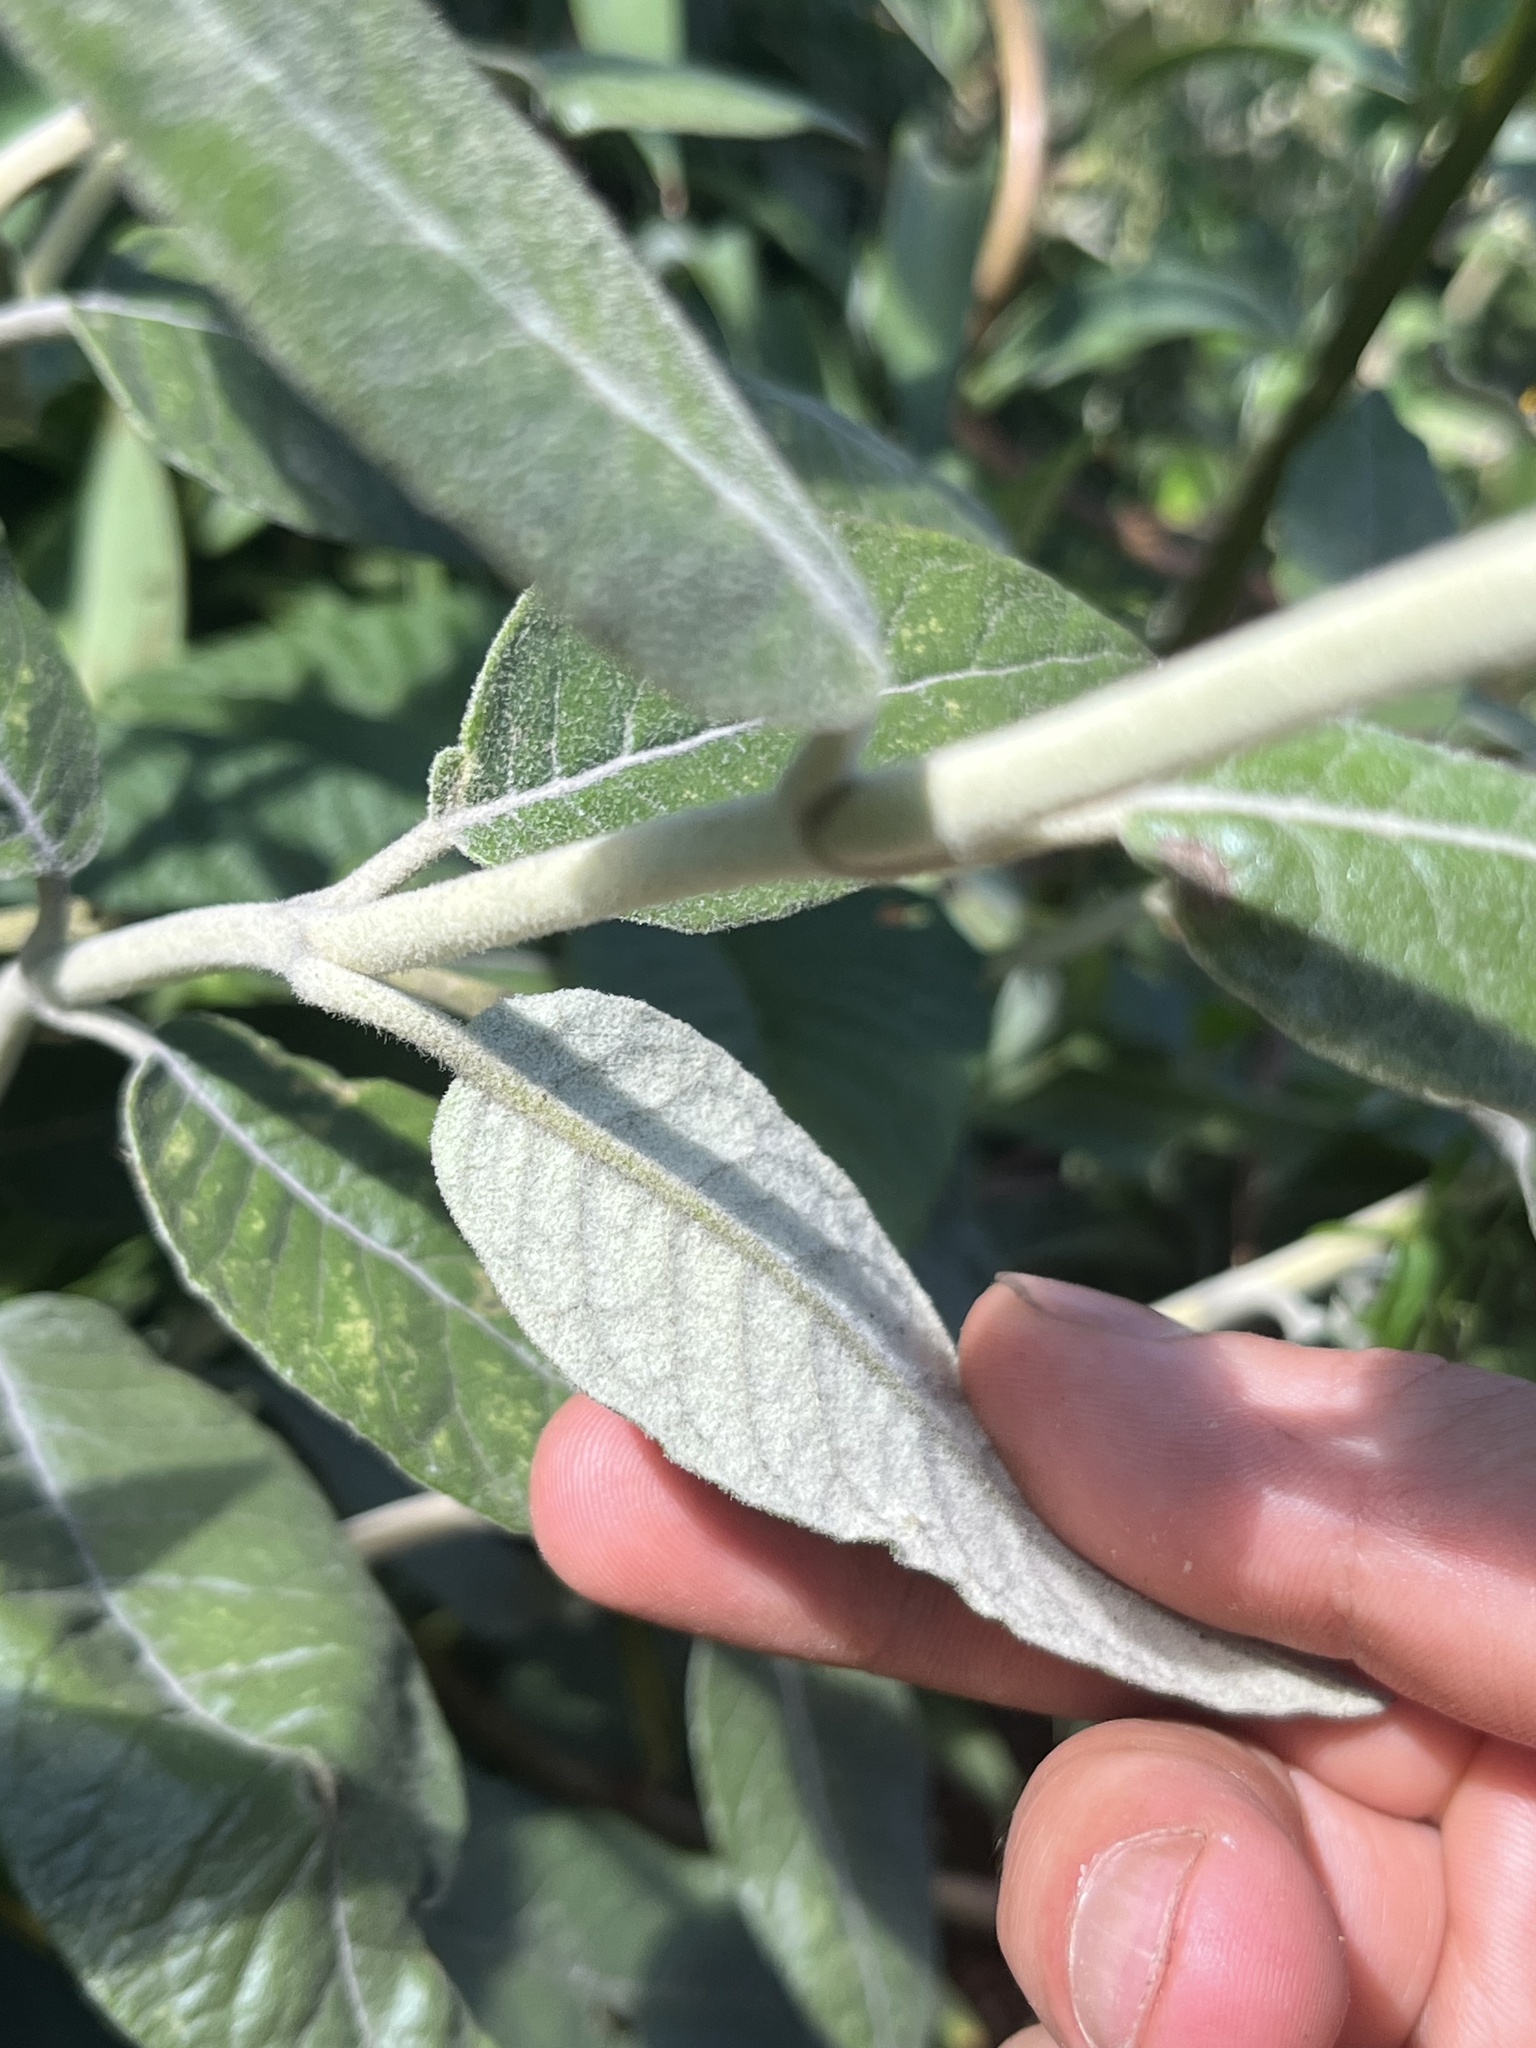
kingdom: Plantae
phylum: Tracheophyta
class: Magnoliopsida
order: Asterales
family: Asteraceae
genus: Ageratina
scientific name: Ageratina asclepiadea
